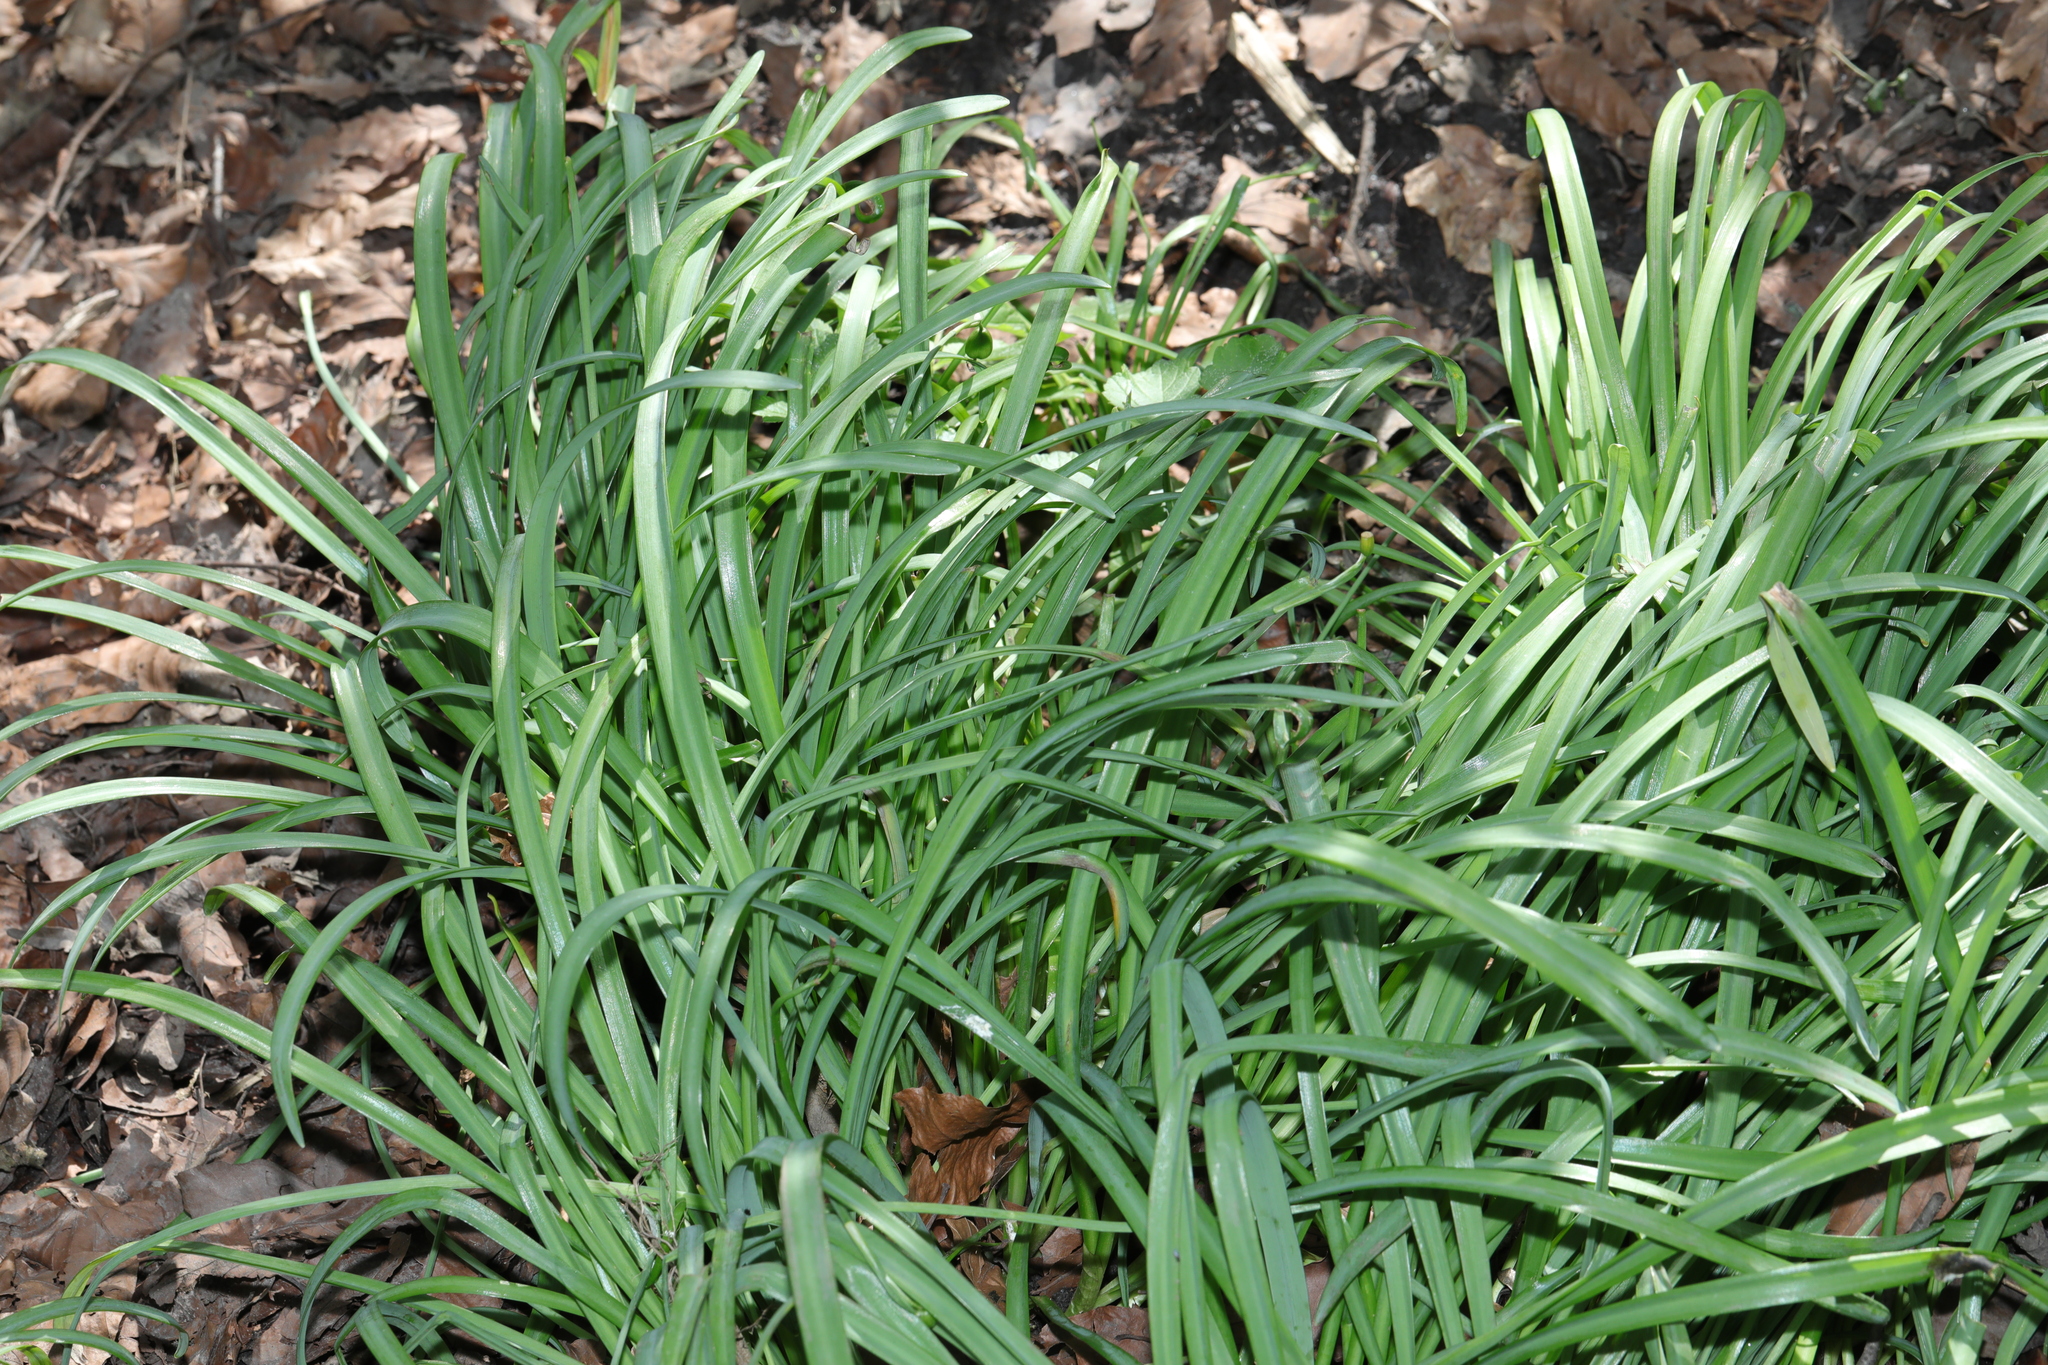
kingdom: Plantae
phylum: Tracheophyta
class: Liliopsida
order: Asparagales
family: Amaryllidaceae
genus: Galanthus
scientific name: Galanthus nivalis
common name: Snowdrop
